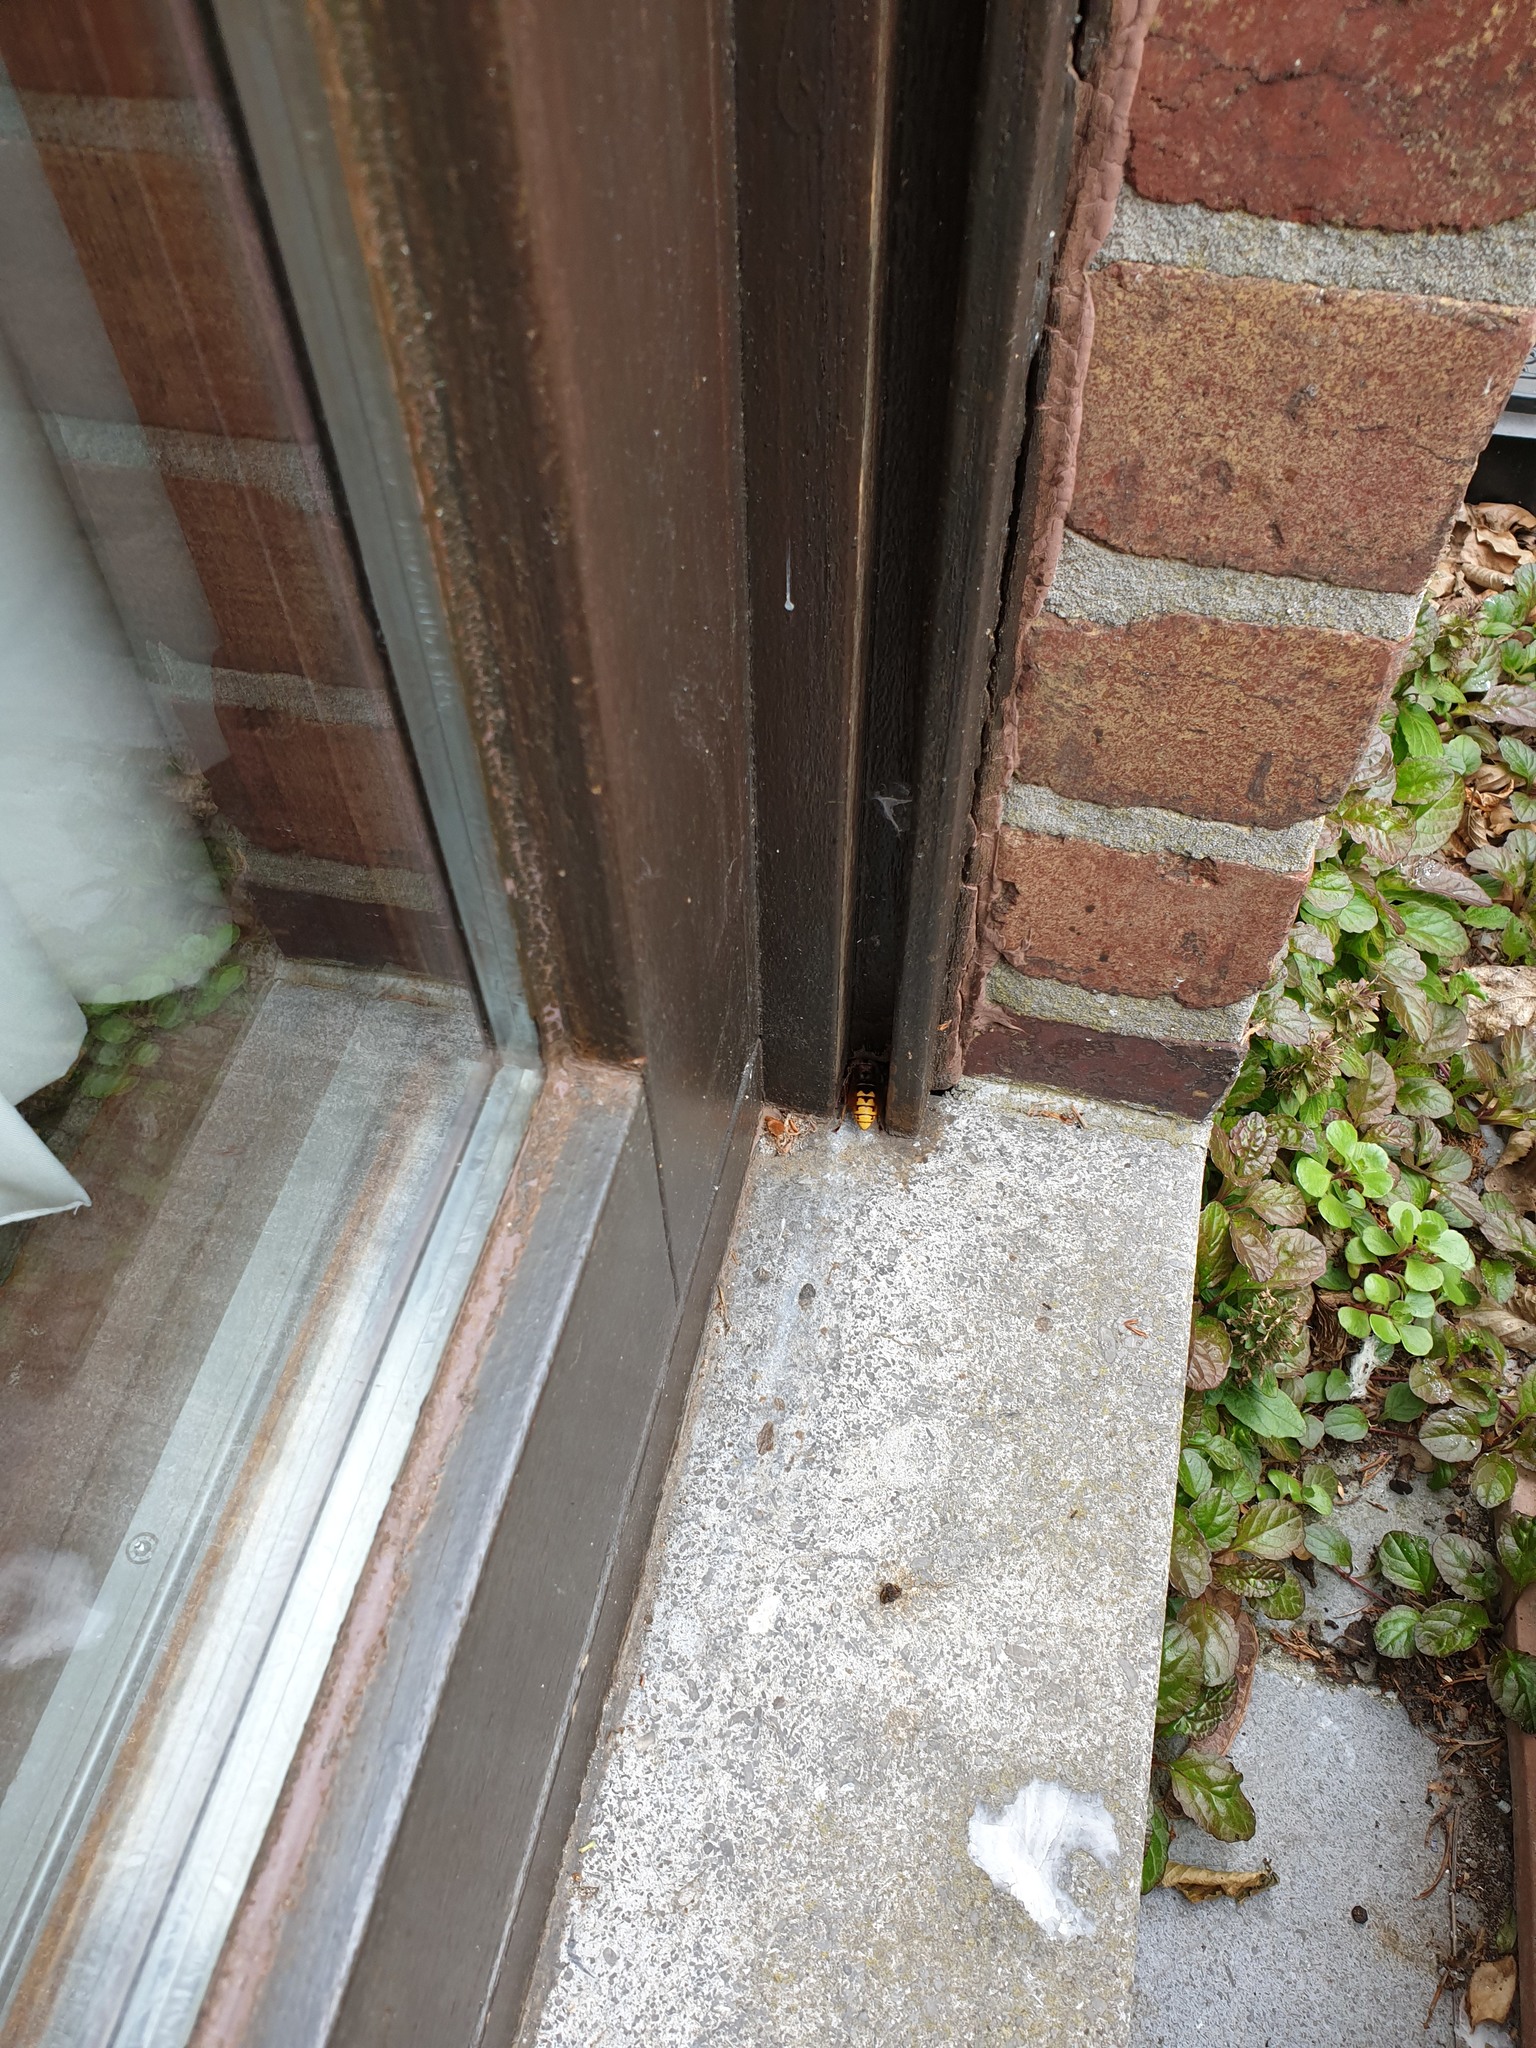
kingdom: Animalia
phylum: Arthropoda
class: Insecta
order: Hymenoptera
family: Vespidae
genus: Vespa
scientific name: Vespa crabro
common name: Hornet
